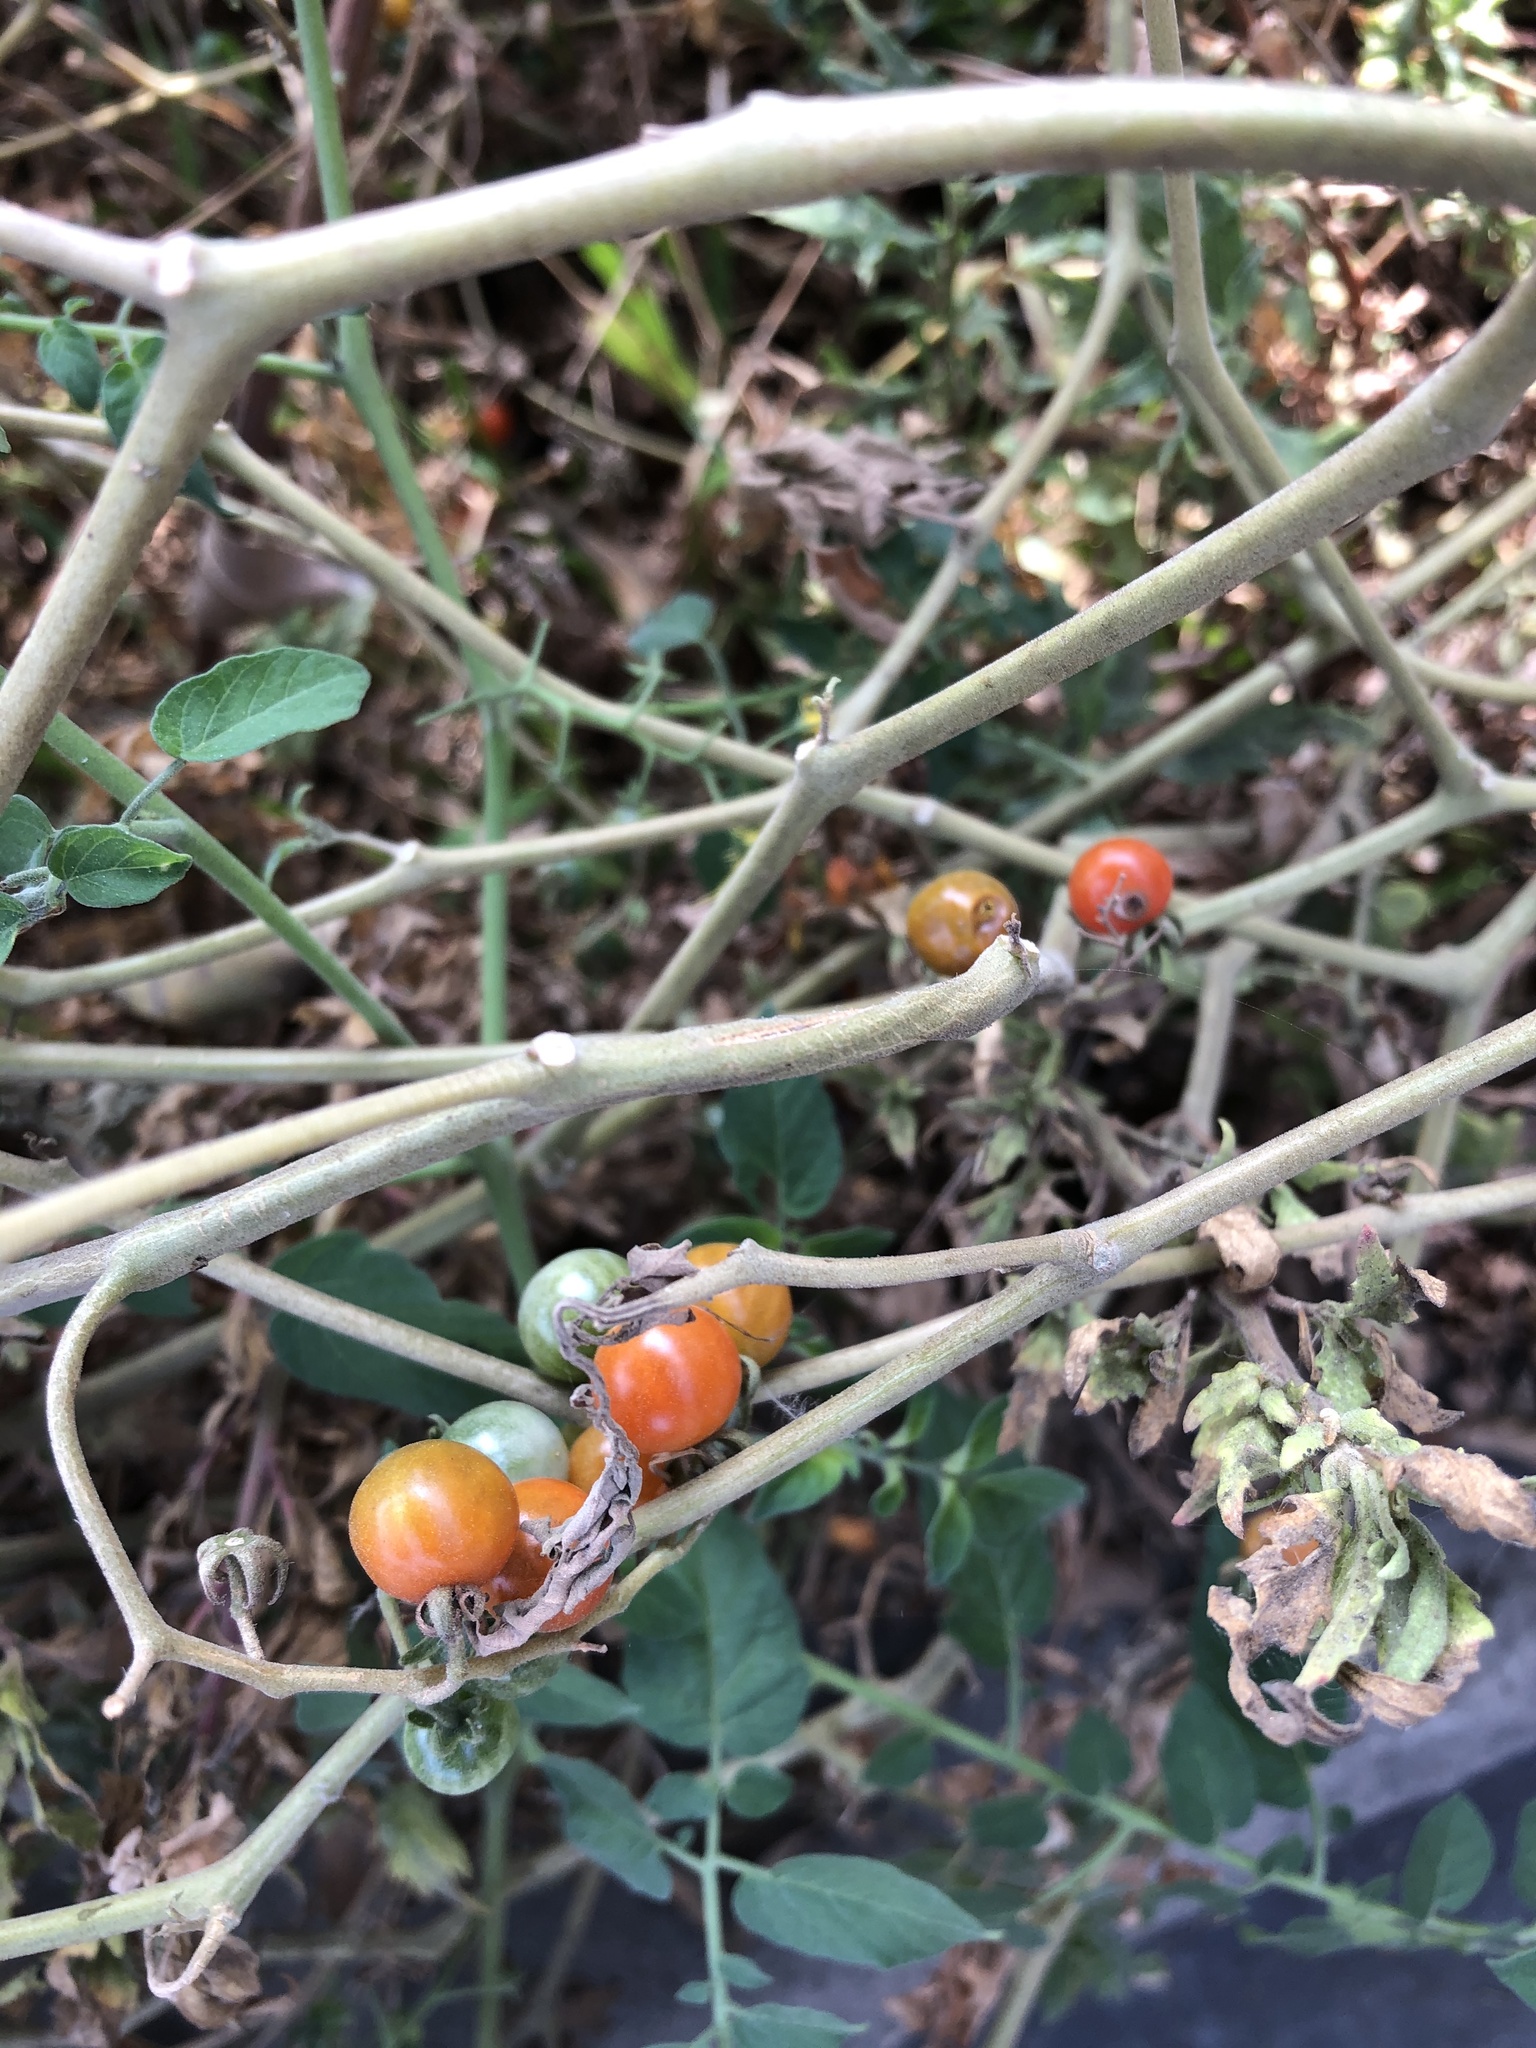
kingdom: Plantae
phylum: Tracheophyta
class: Magnoliopsida
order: Solanales
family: Solanaceae
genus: Solanum
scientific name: Solanum pimpinellifolium
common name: Currant-tomato
